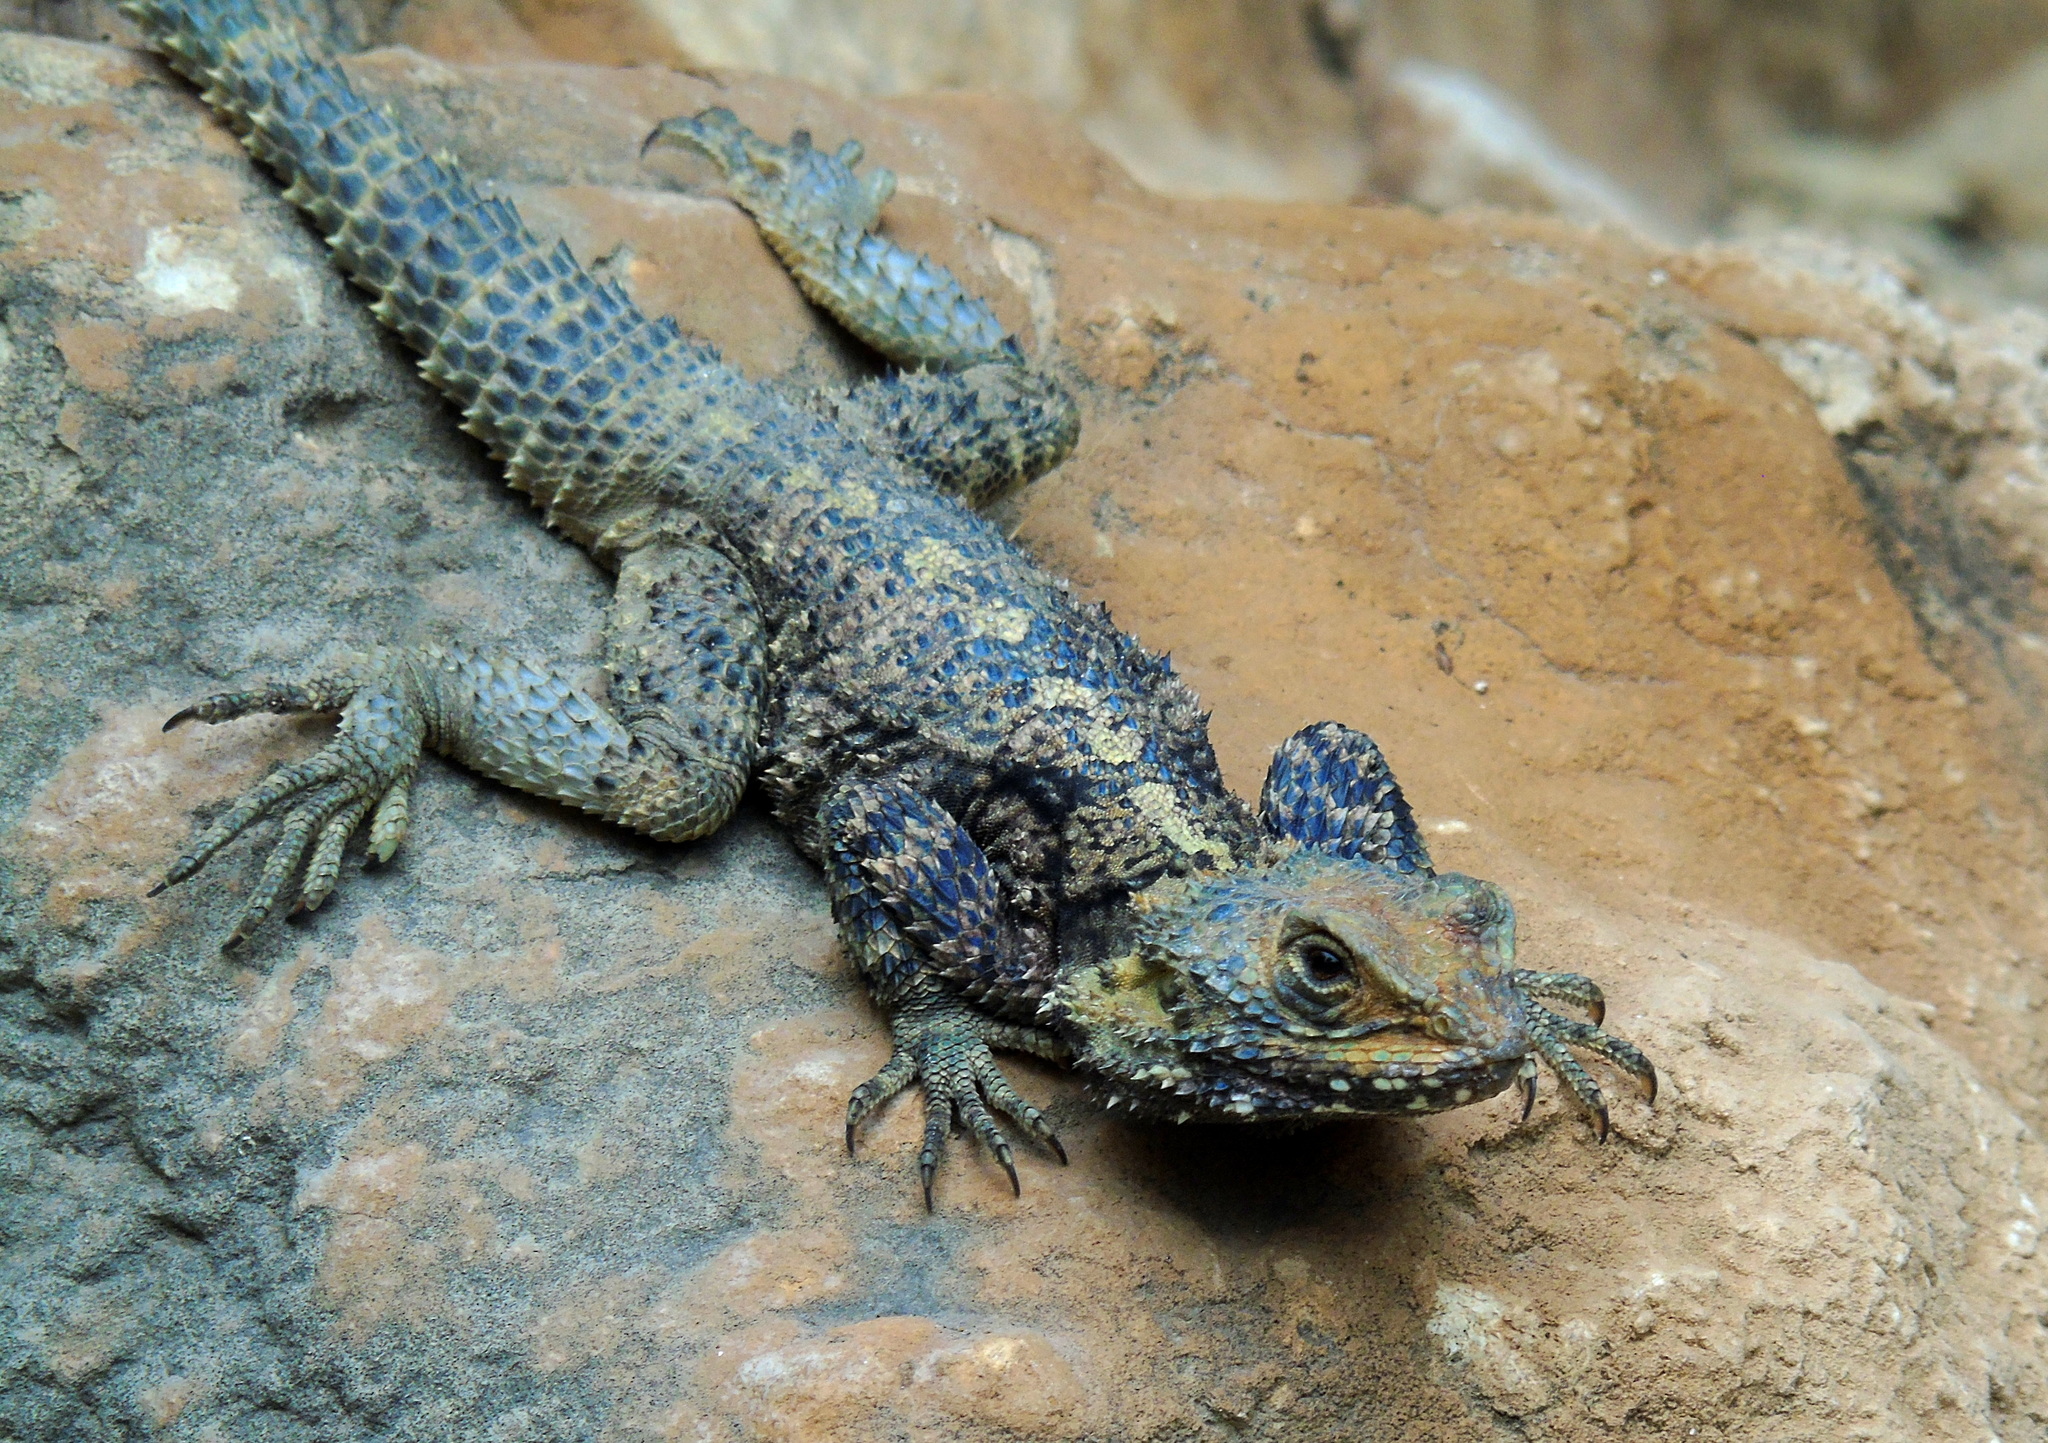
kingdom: Animalia
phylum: Chordata
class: Squamata
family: Agamidae
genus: Stellagama
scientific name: Stellagama stellio
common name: Starred agama
